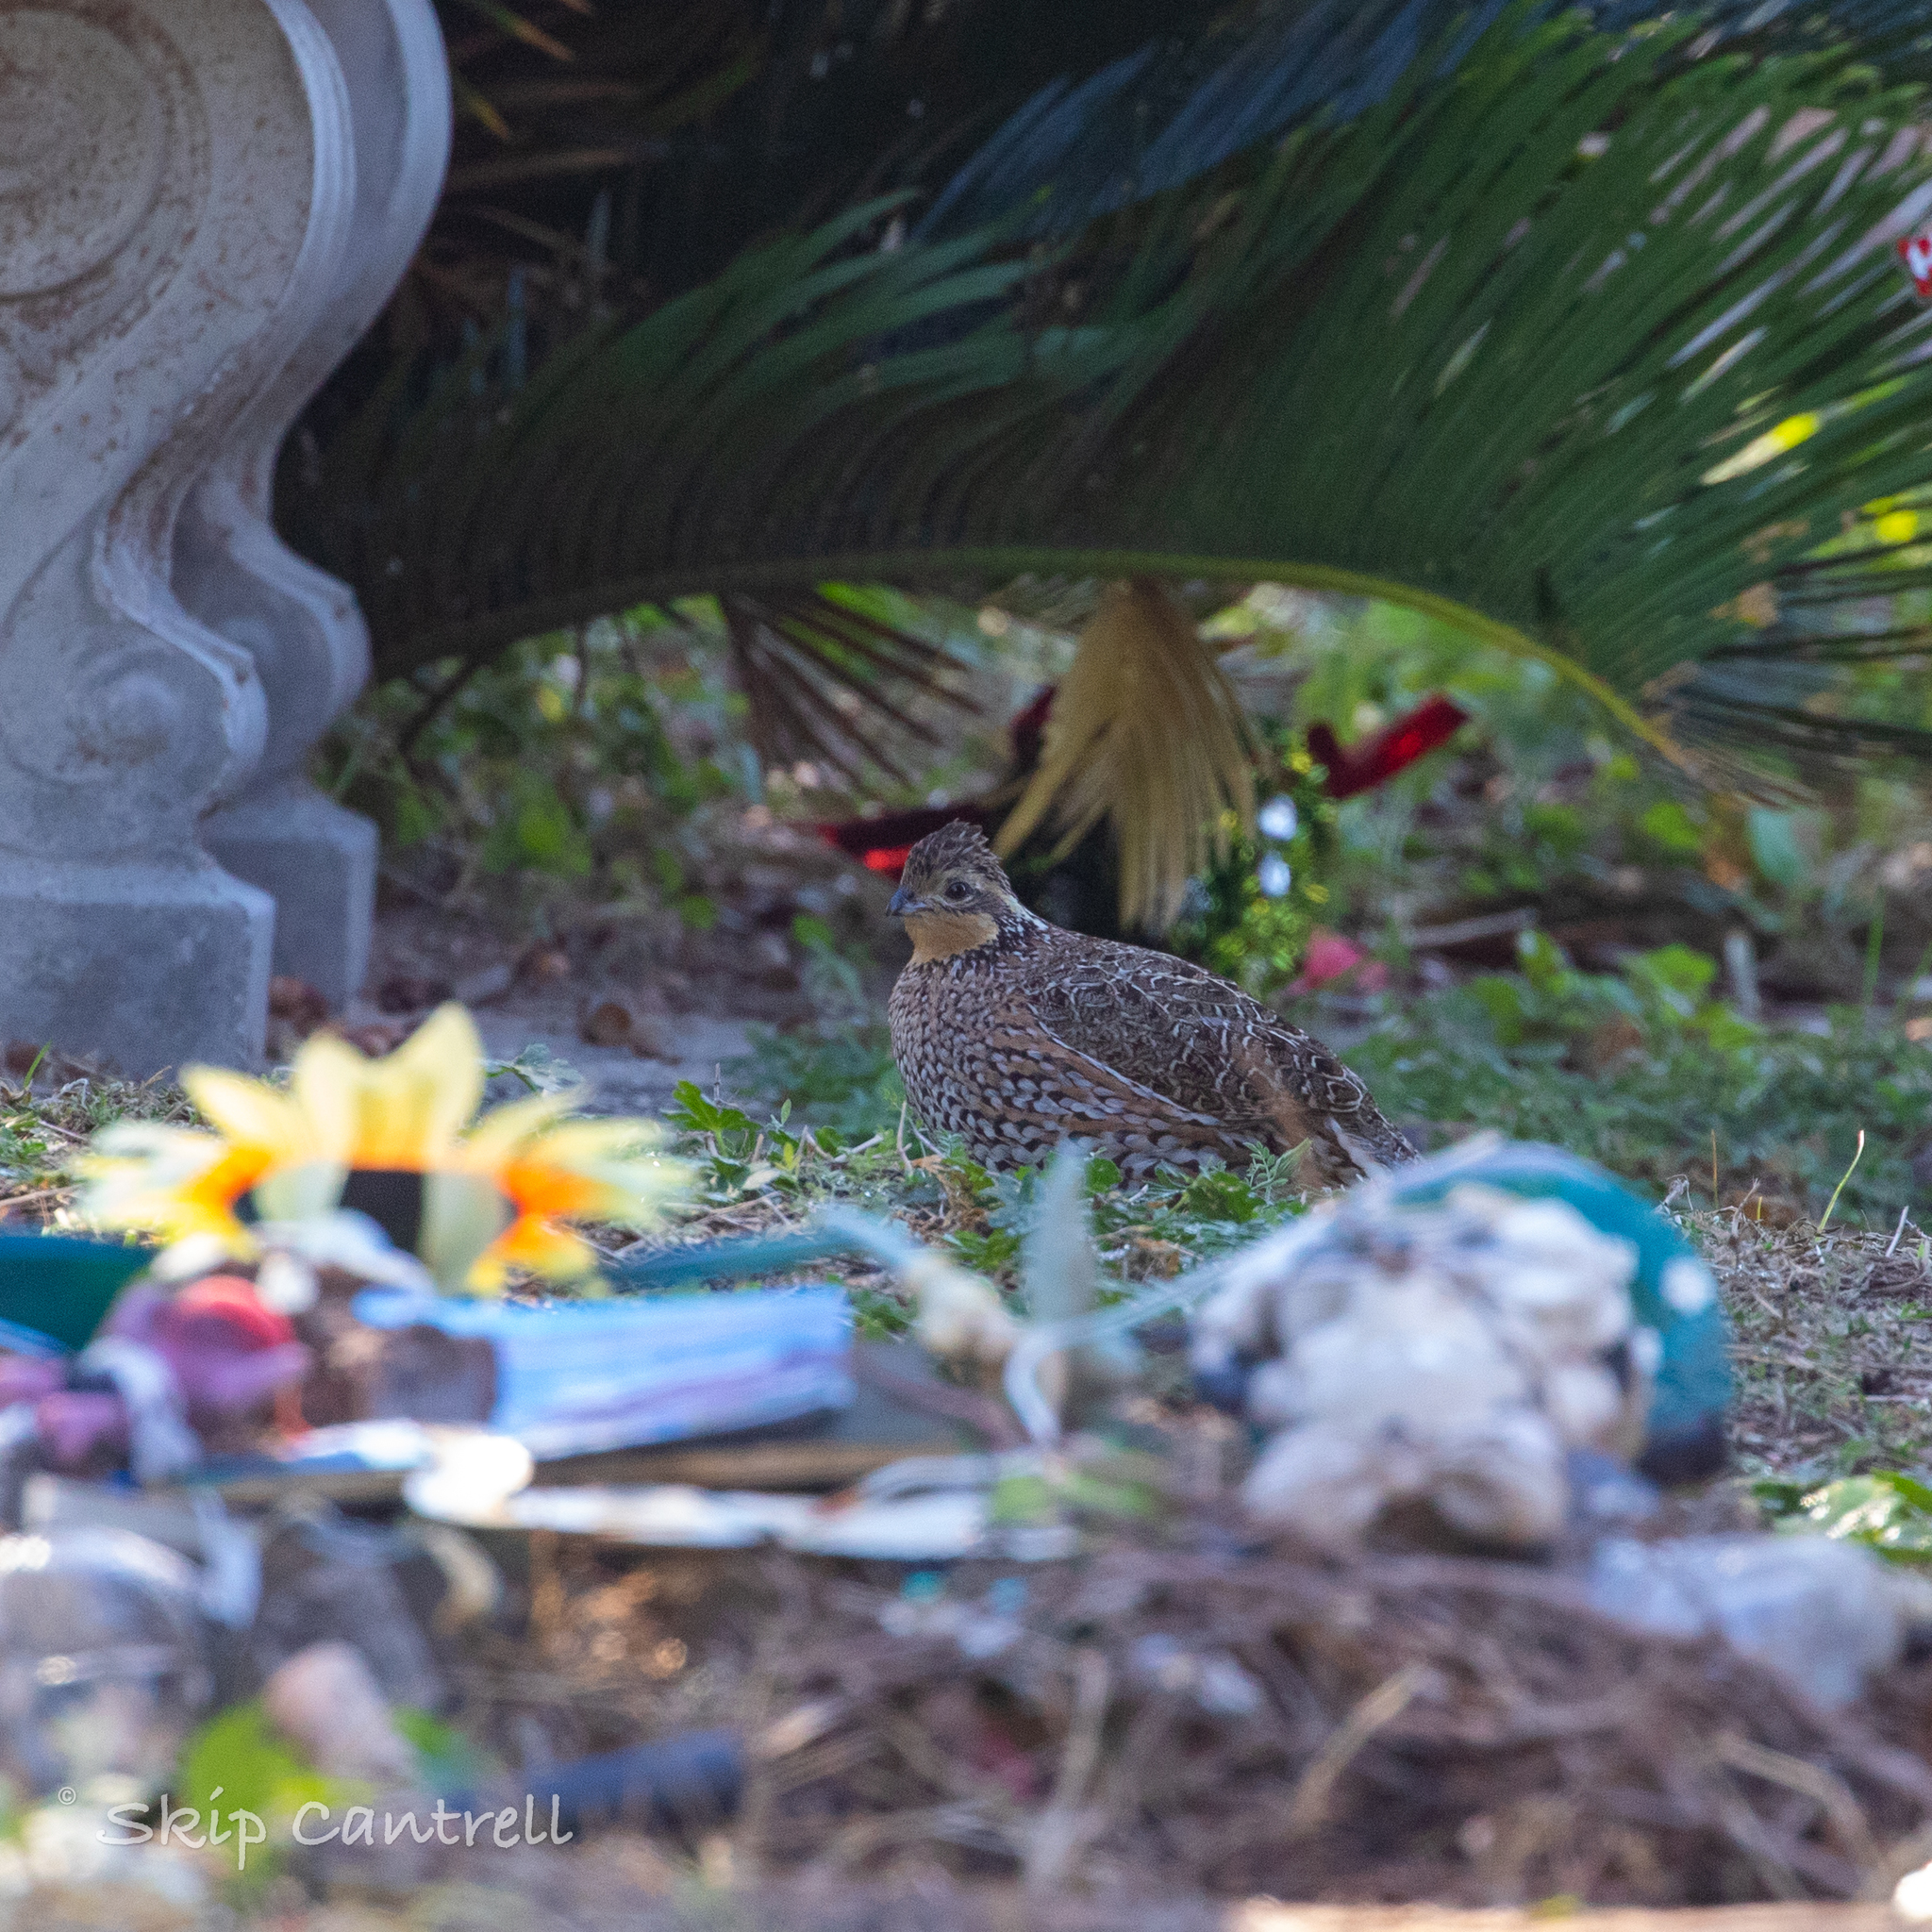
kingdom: Animalia
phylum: Chordata
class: Aves
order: Galliformes
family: Odontophoridae
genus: Colinus
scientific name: Colinus virginianus
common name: Northern bobwhite
